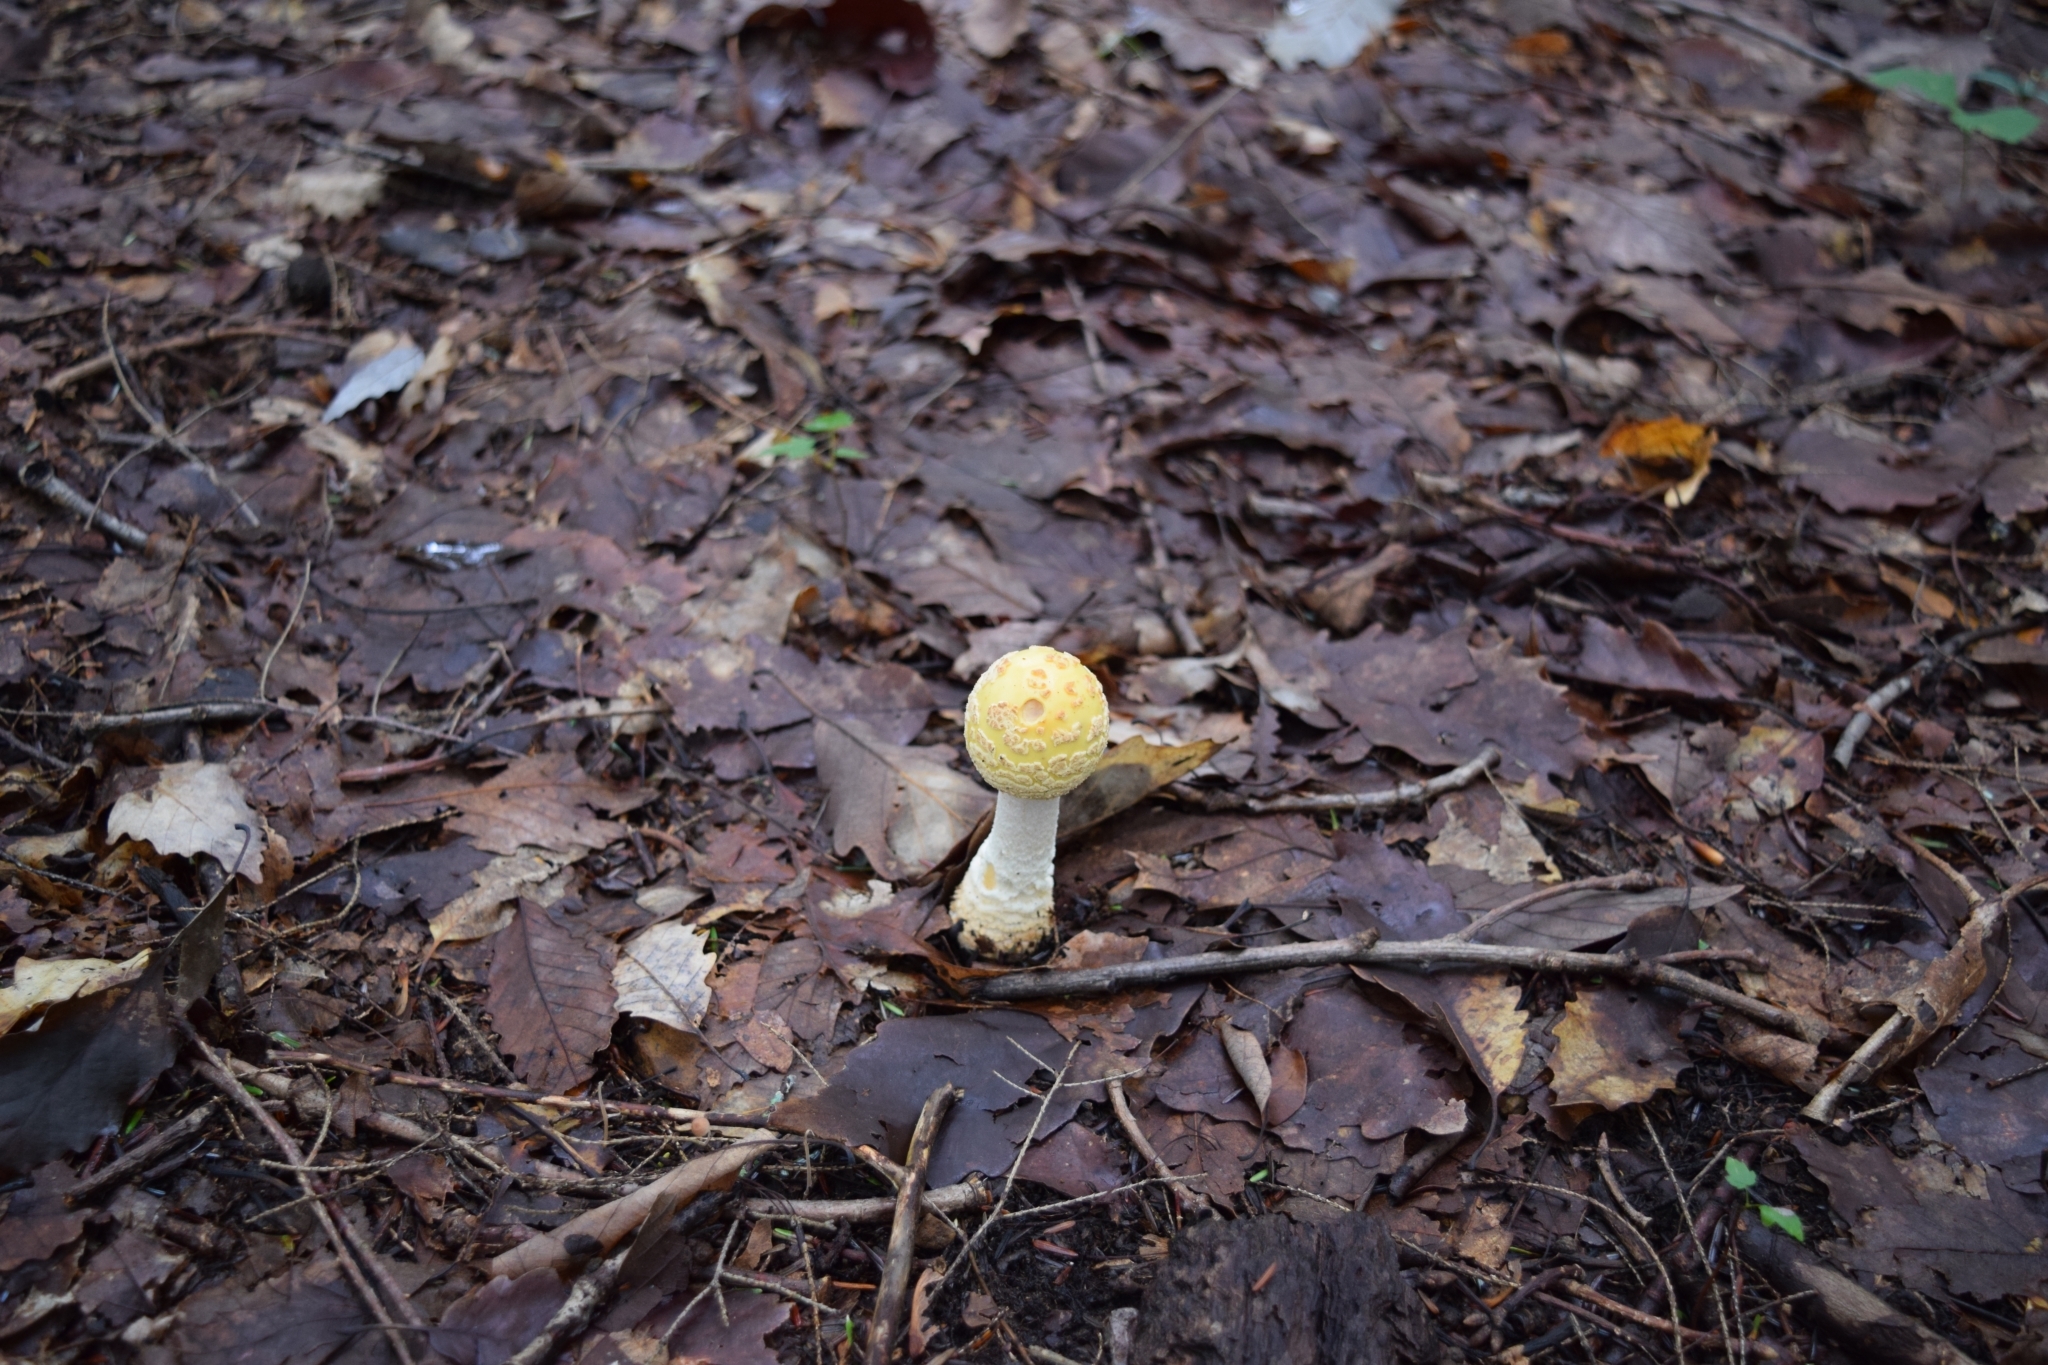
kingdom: Fungi
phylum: Basidiomycota
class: Agaricomycetes
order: Agaricales
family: Amanitaceae
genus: Amanita
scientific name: Amanita muscaria
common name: Fly agaric
